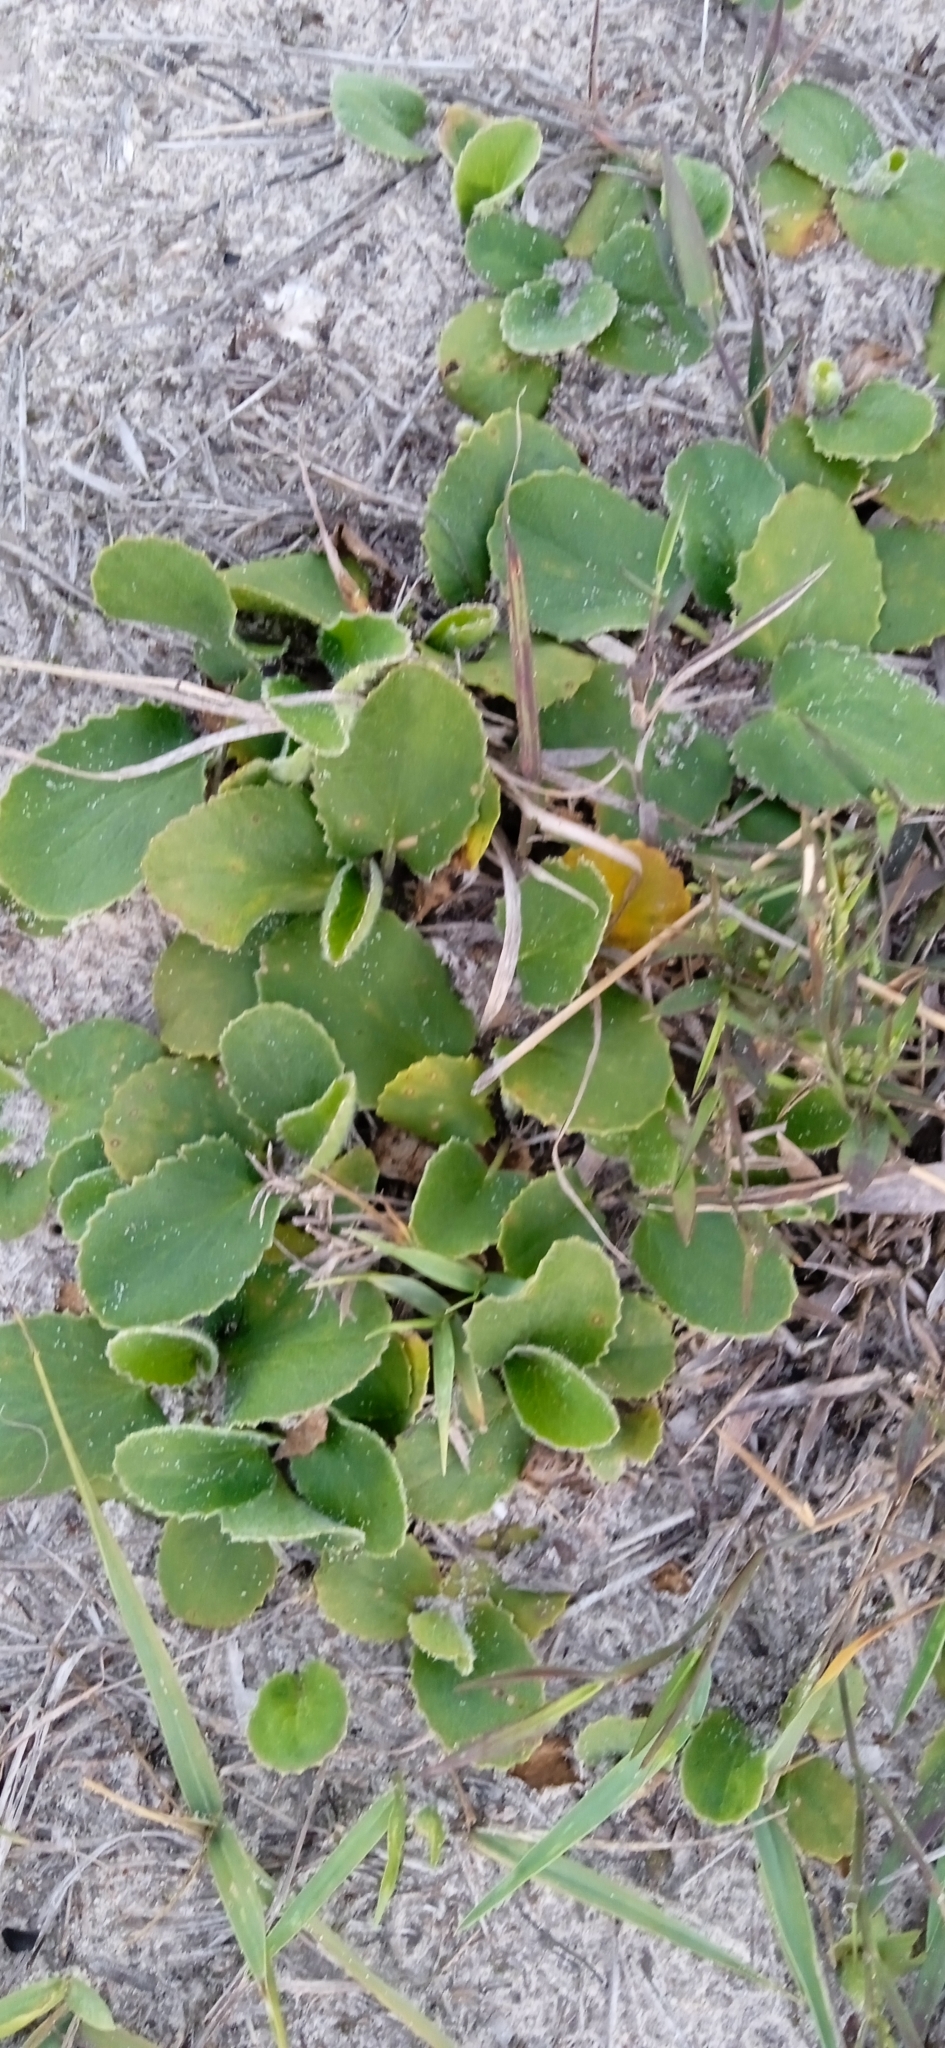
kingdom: Plantae
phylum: Tracheophyta
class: Magnoliopsida
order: Apiales
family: Apiaceae
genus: Centella
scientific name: Centella asiatica
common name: Spadeleaf
